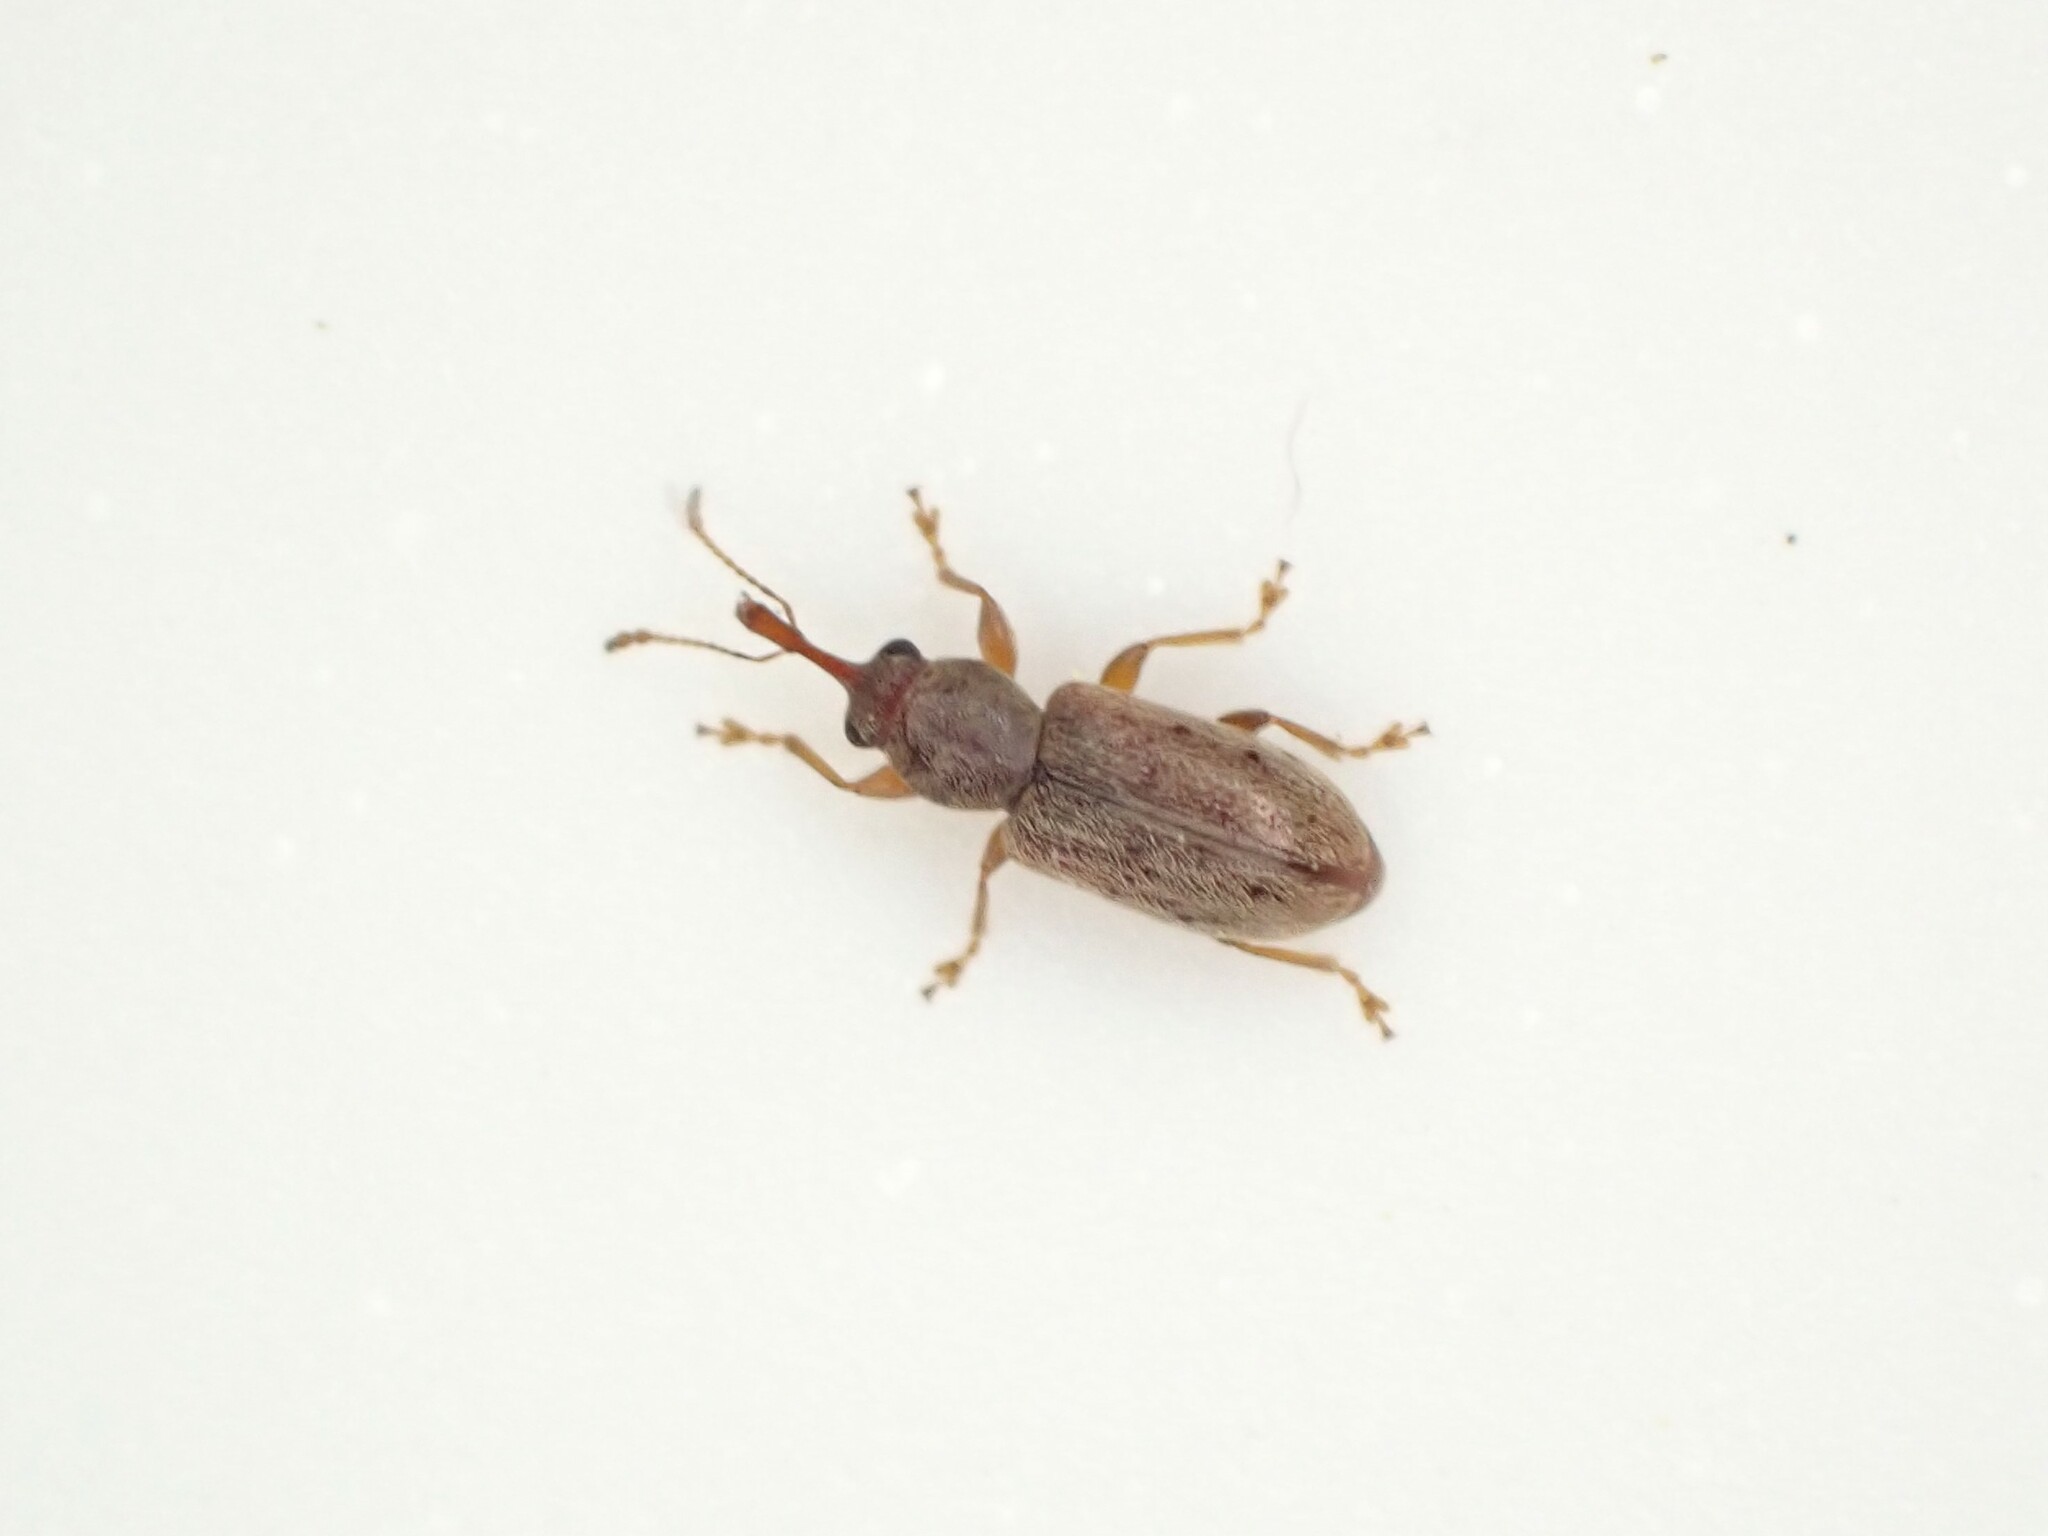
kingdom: Animalia
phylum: Arthropoda
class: Insecta
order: Coleoptera
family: Nemonychidae
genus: Rhinorhynchus
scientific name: Rhinorhynchus rufulus
